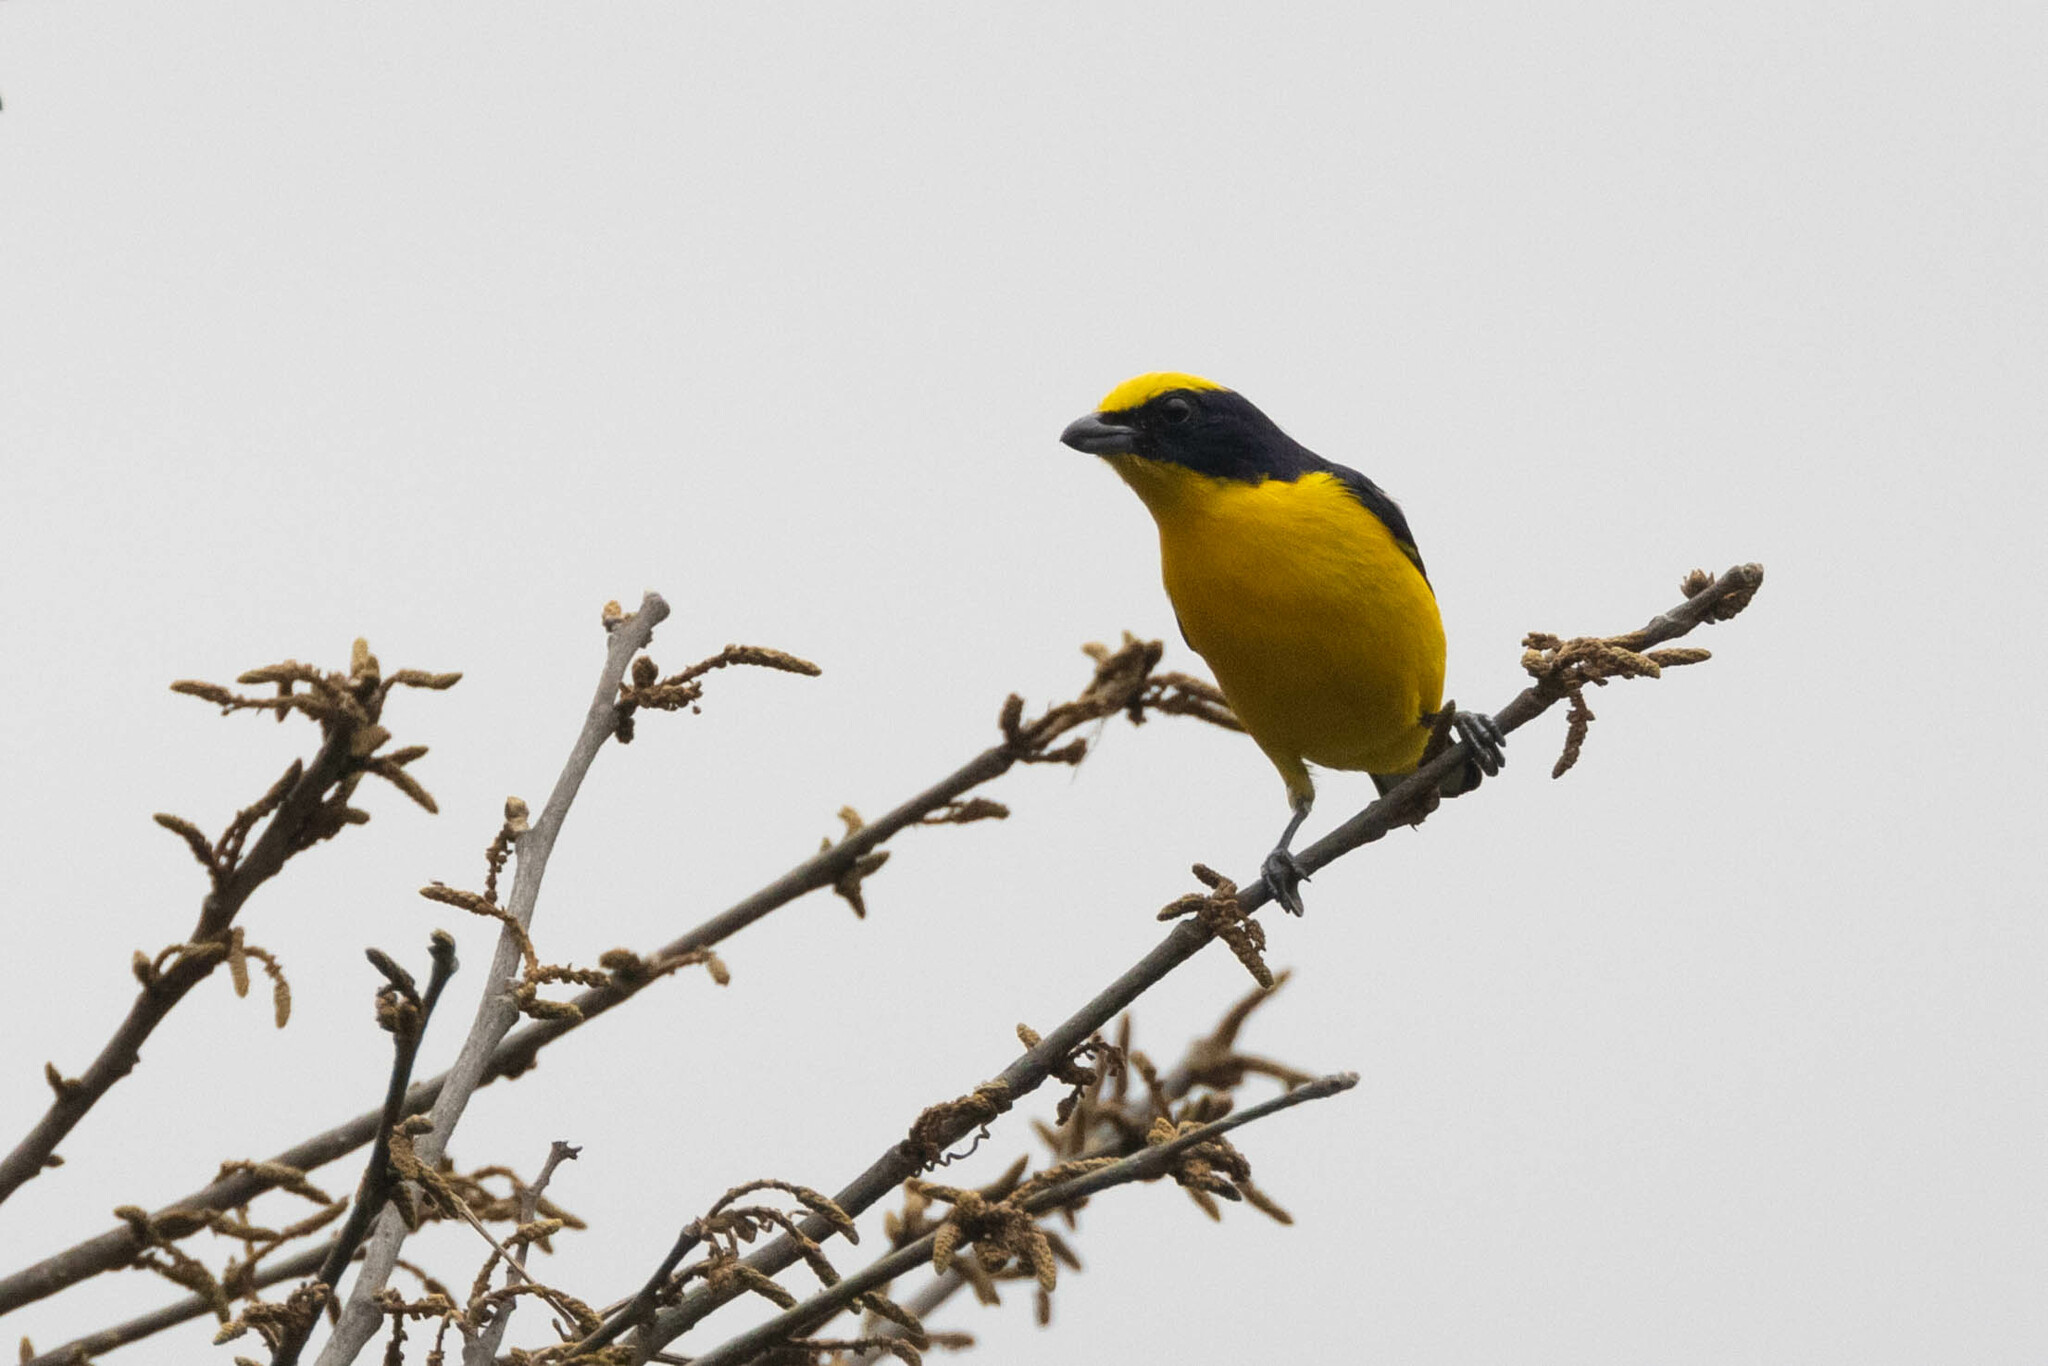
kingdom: Animalia
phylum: Chordata
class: Aves
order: Passeriformes
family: Fringillidae
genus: Euphonia
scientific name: Euphonia laniirostris
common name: Thick-billed euphonia
